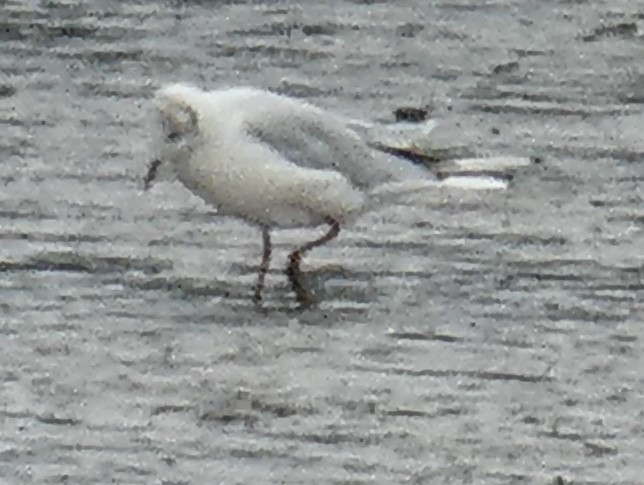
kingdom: Animalia
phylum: Chordata
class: Aves
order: Charadriiformes
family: Laridae
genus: Chroicocephalus
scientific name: Chroicocephalus ridibundus
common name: Black-headed gull
